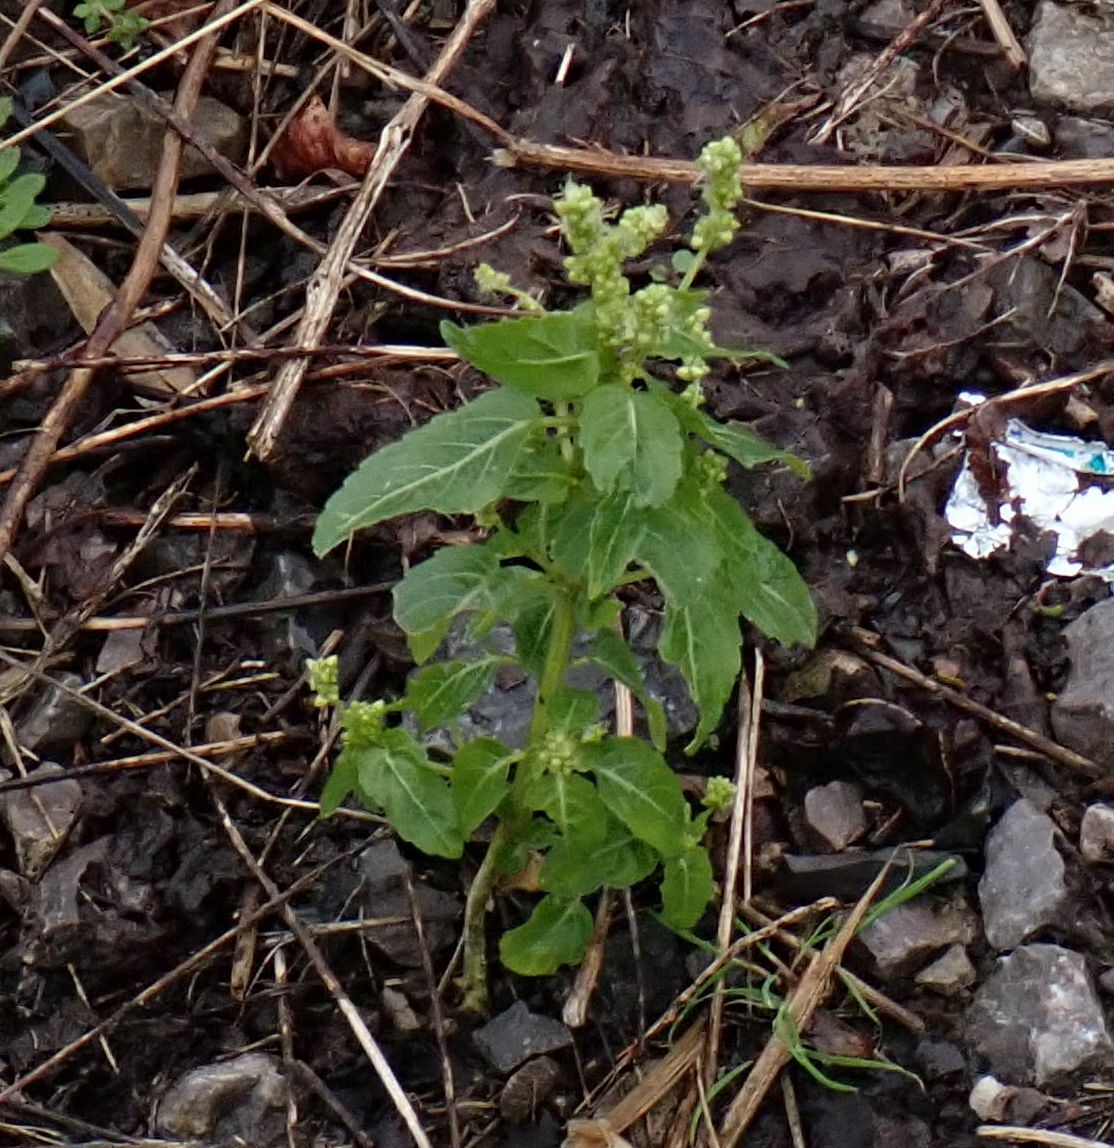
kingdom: Plantae
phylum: Tracheophyta
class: Magnoliopsida
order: Malpighiales
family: Euphorbiaceae
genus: Mercurialis
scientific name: Mercurialis annua
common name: Annual mercury
